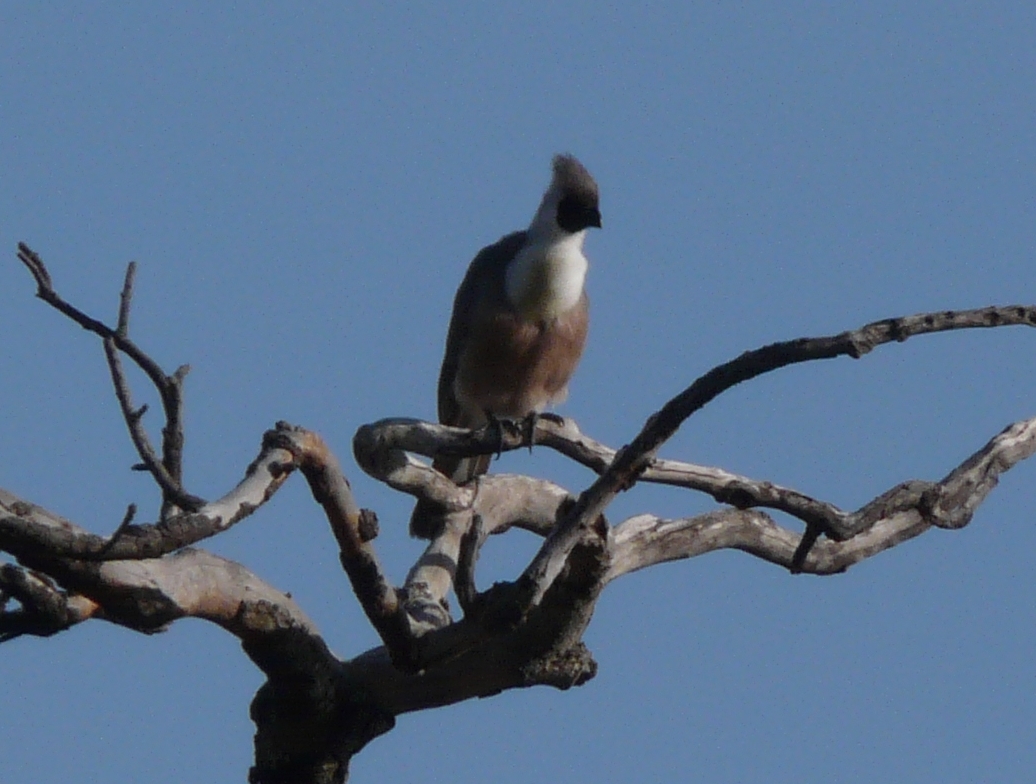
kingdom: Animalia
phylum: Chordata
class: Aves
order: Musophagiformes
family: Musophagidae
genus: Corythaixoides
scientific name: Corythaixoides personatus
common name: Bare-faced go-away-bird
